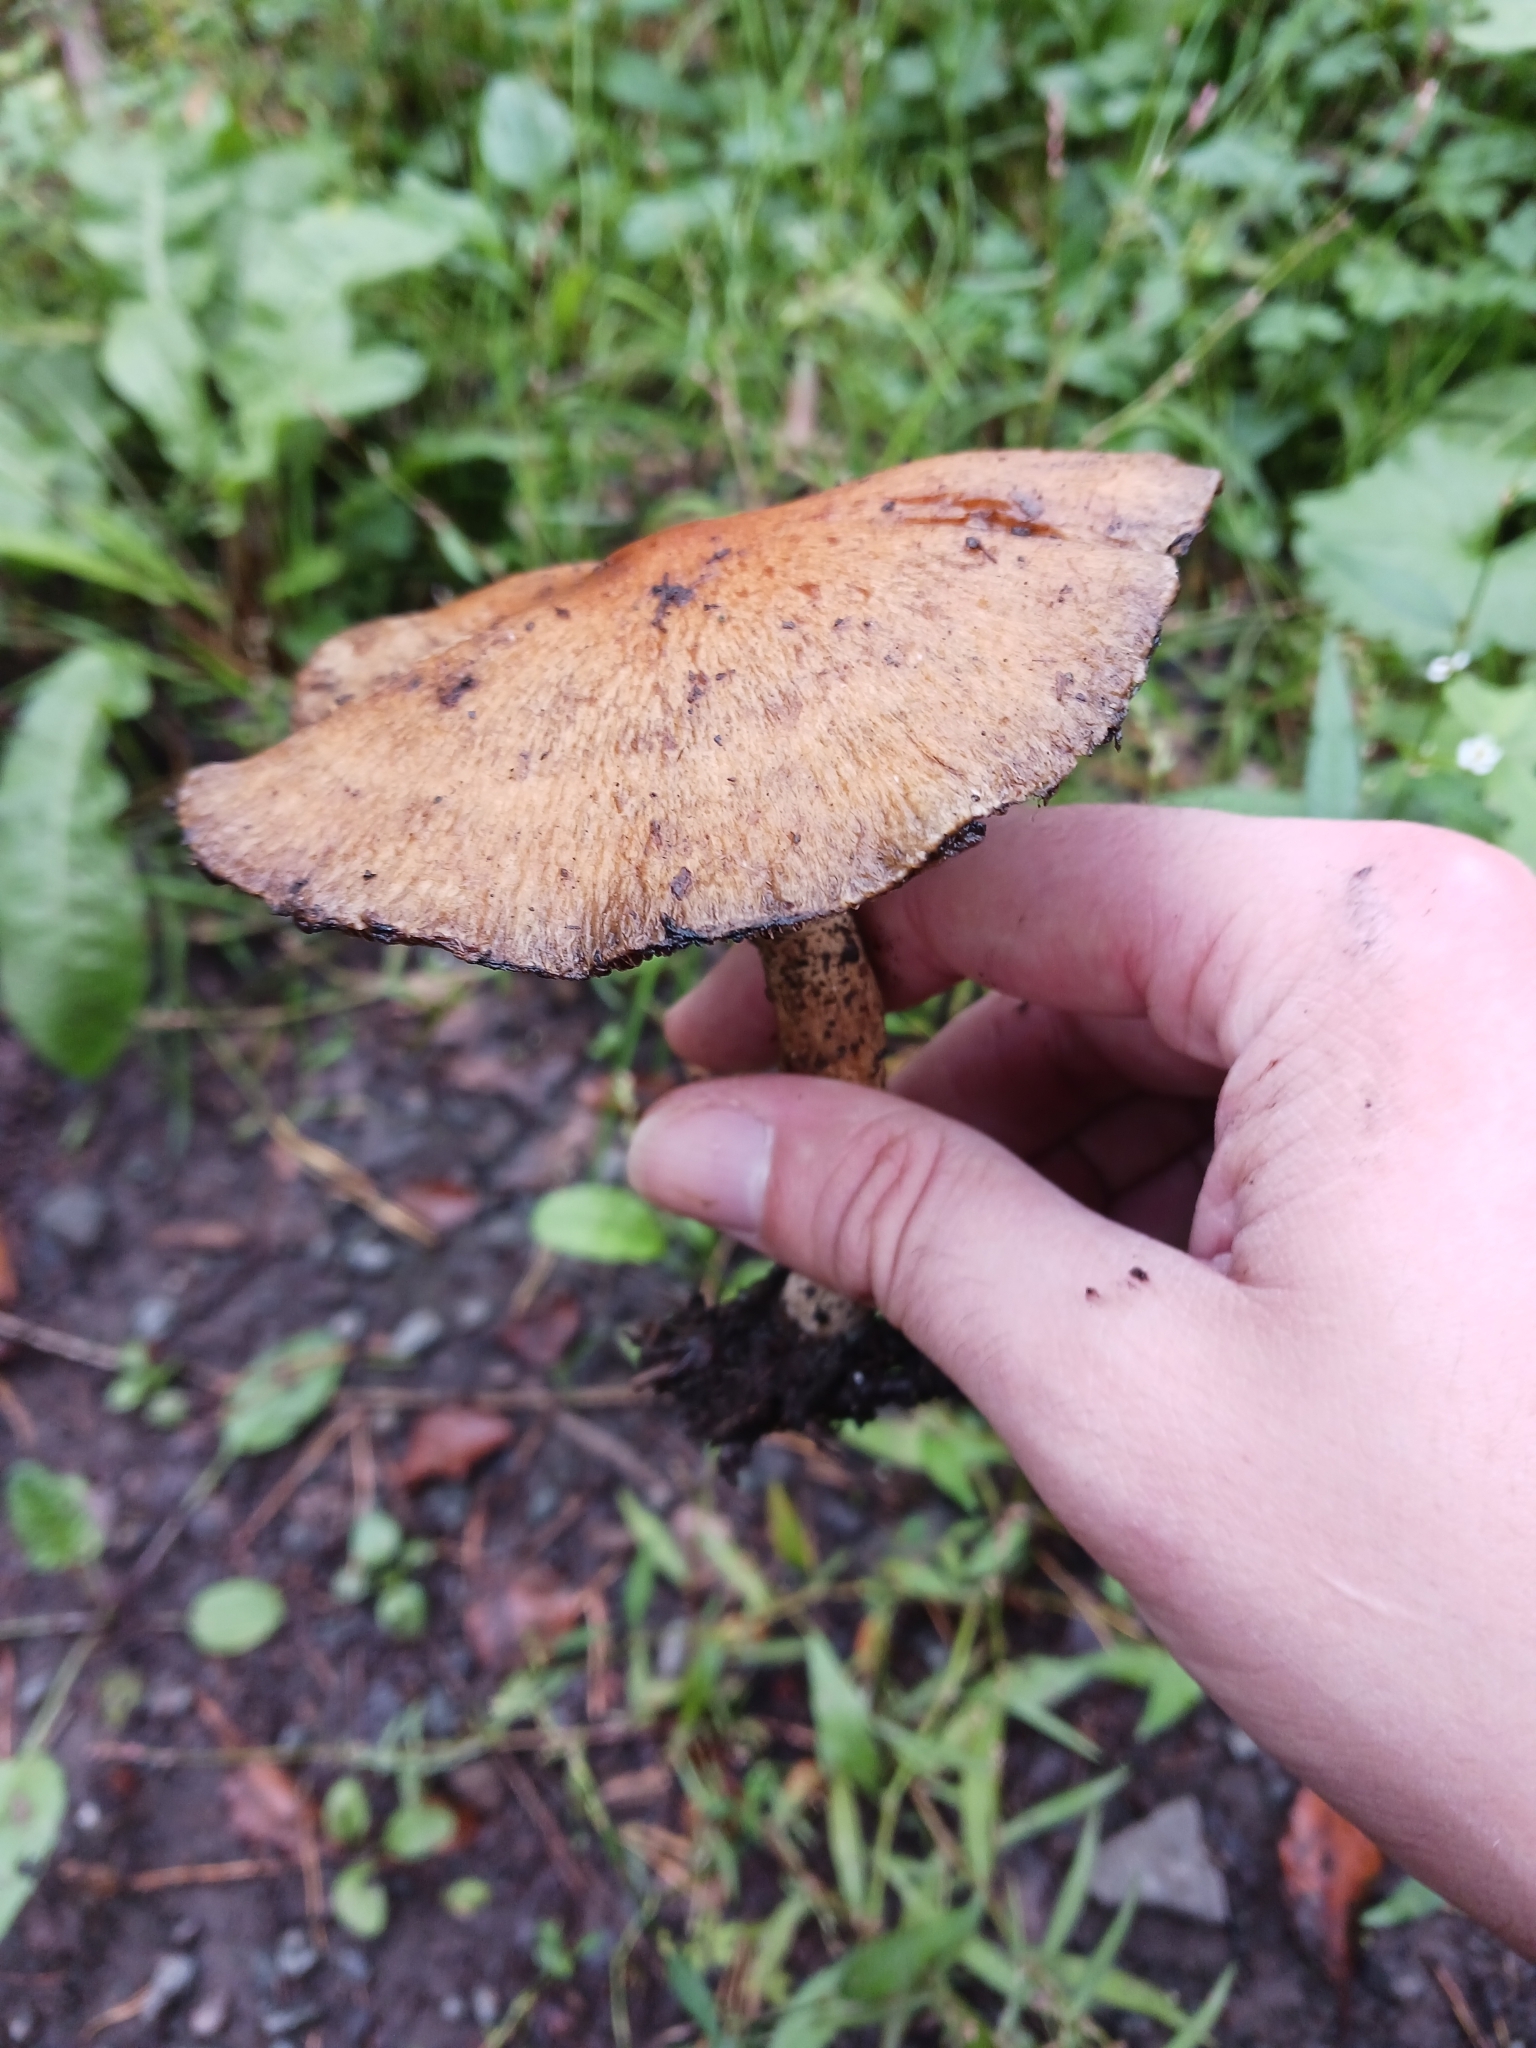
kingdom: Fungi
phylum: Basidiomycota
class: Agaricomycetes
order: Agaricales
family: Psathyrellaceae
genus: Lacrymaria
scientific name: Lacrymaria lacrymabunda
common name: Weeping widow
